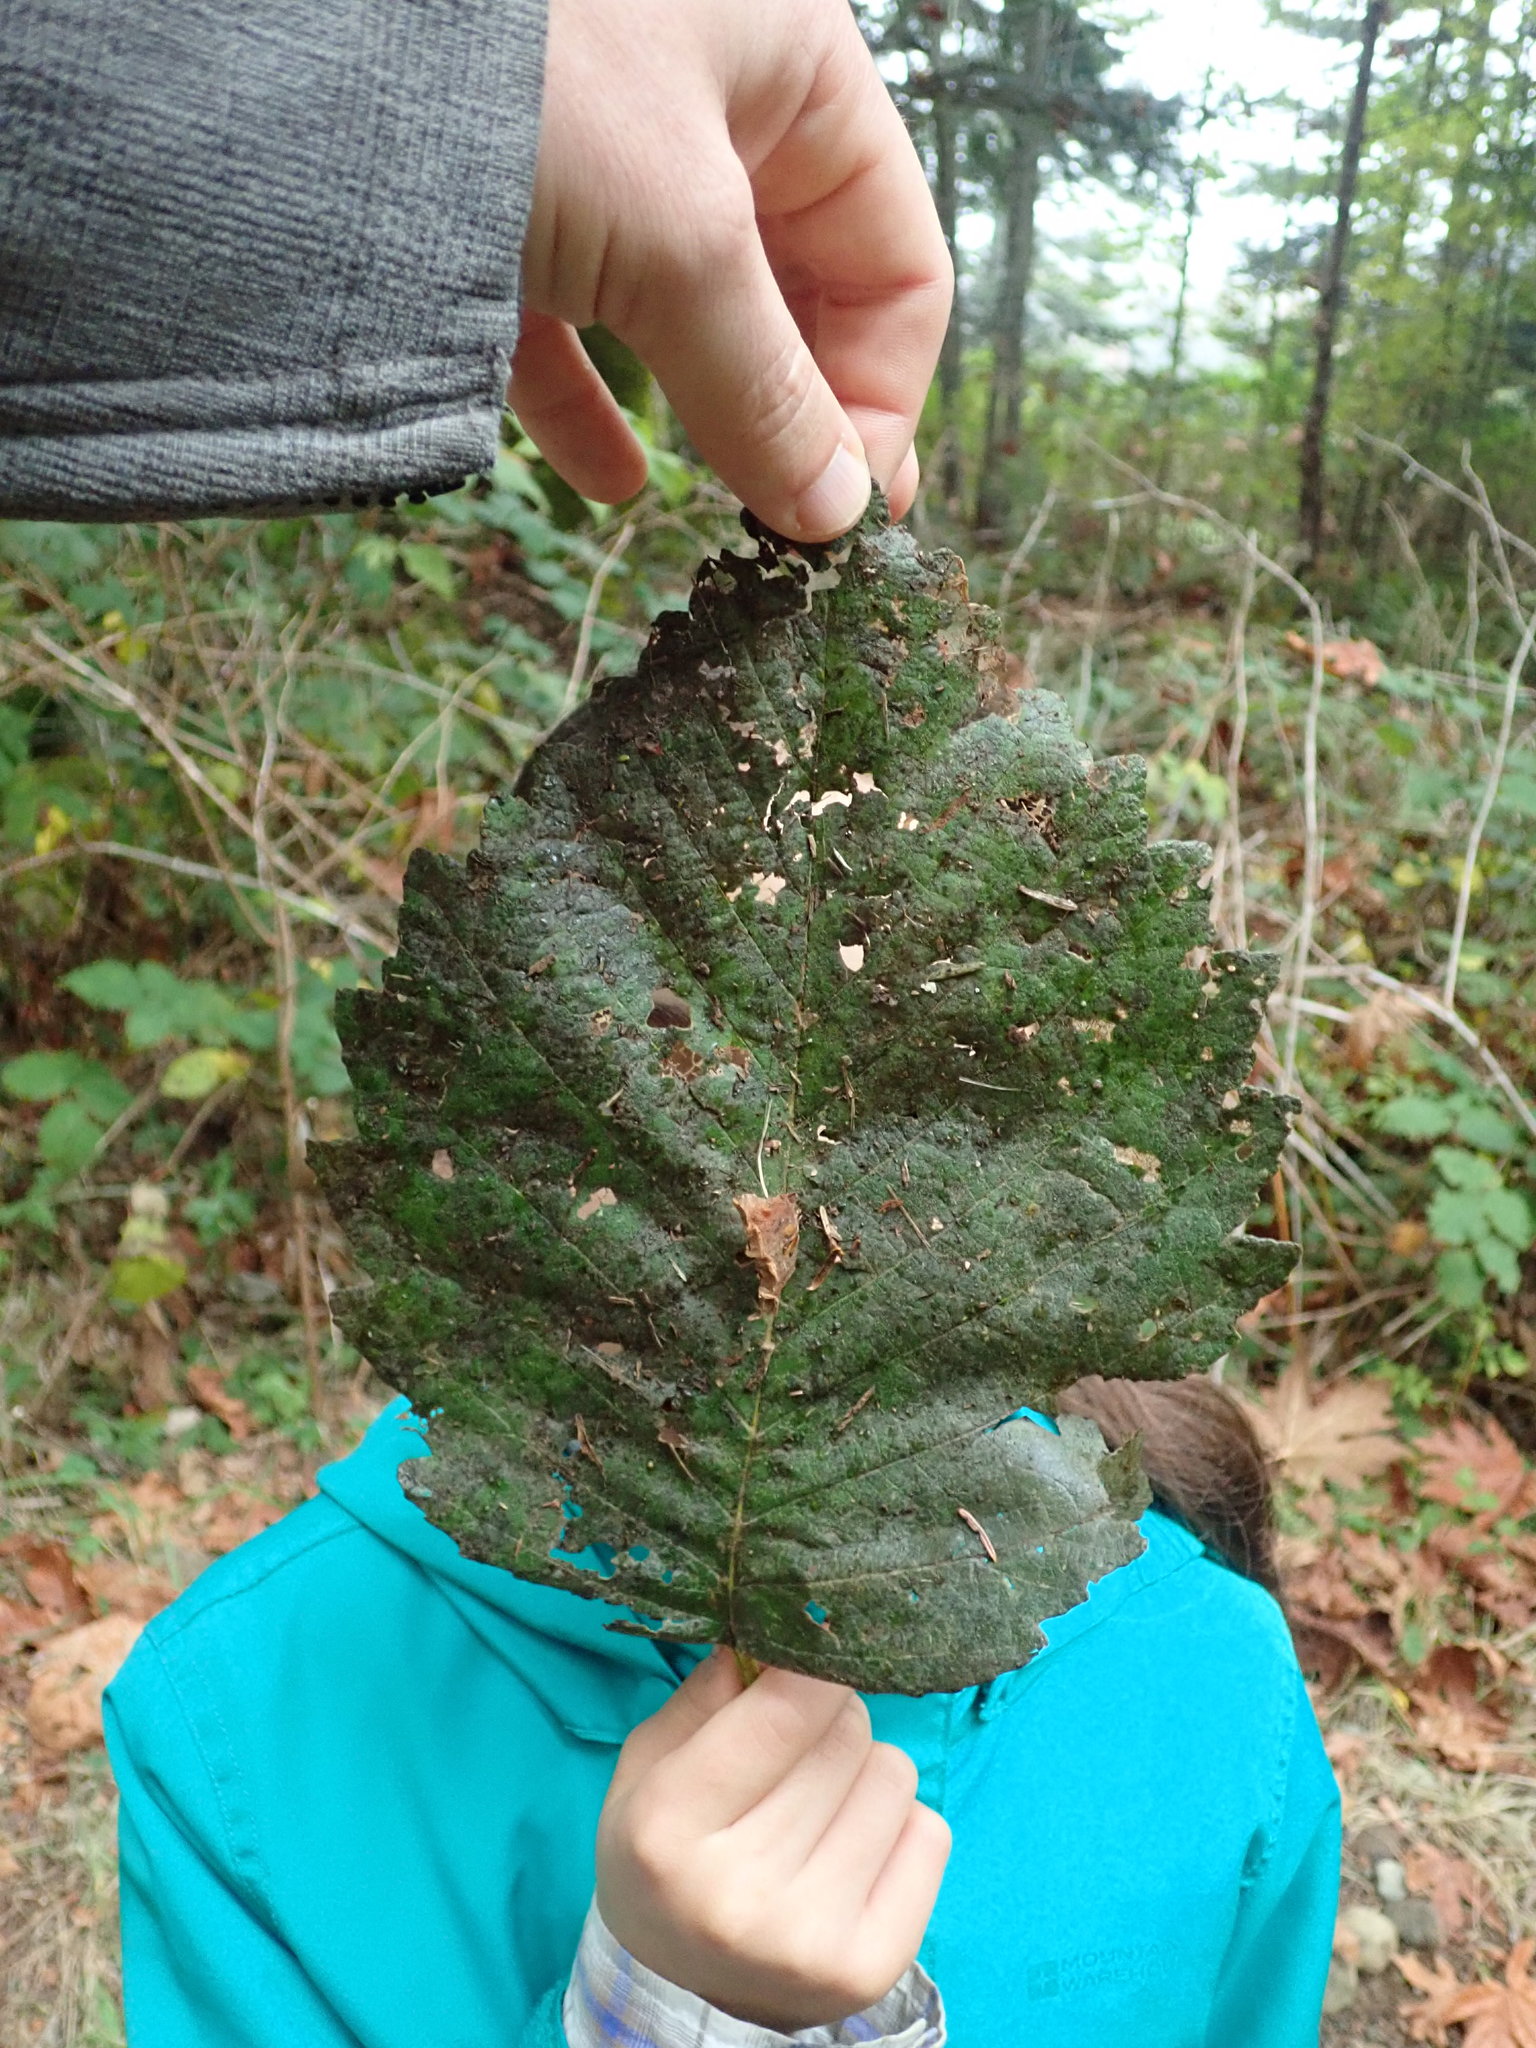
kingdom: Plantae
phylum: Tracheophyta
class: Magnoliopsida
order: Fagales
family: Betulaceae
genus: Alnus
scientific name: Alnus rubra
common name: Red alder
